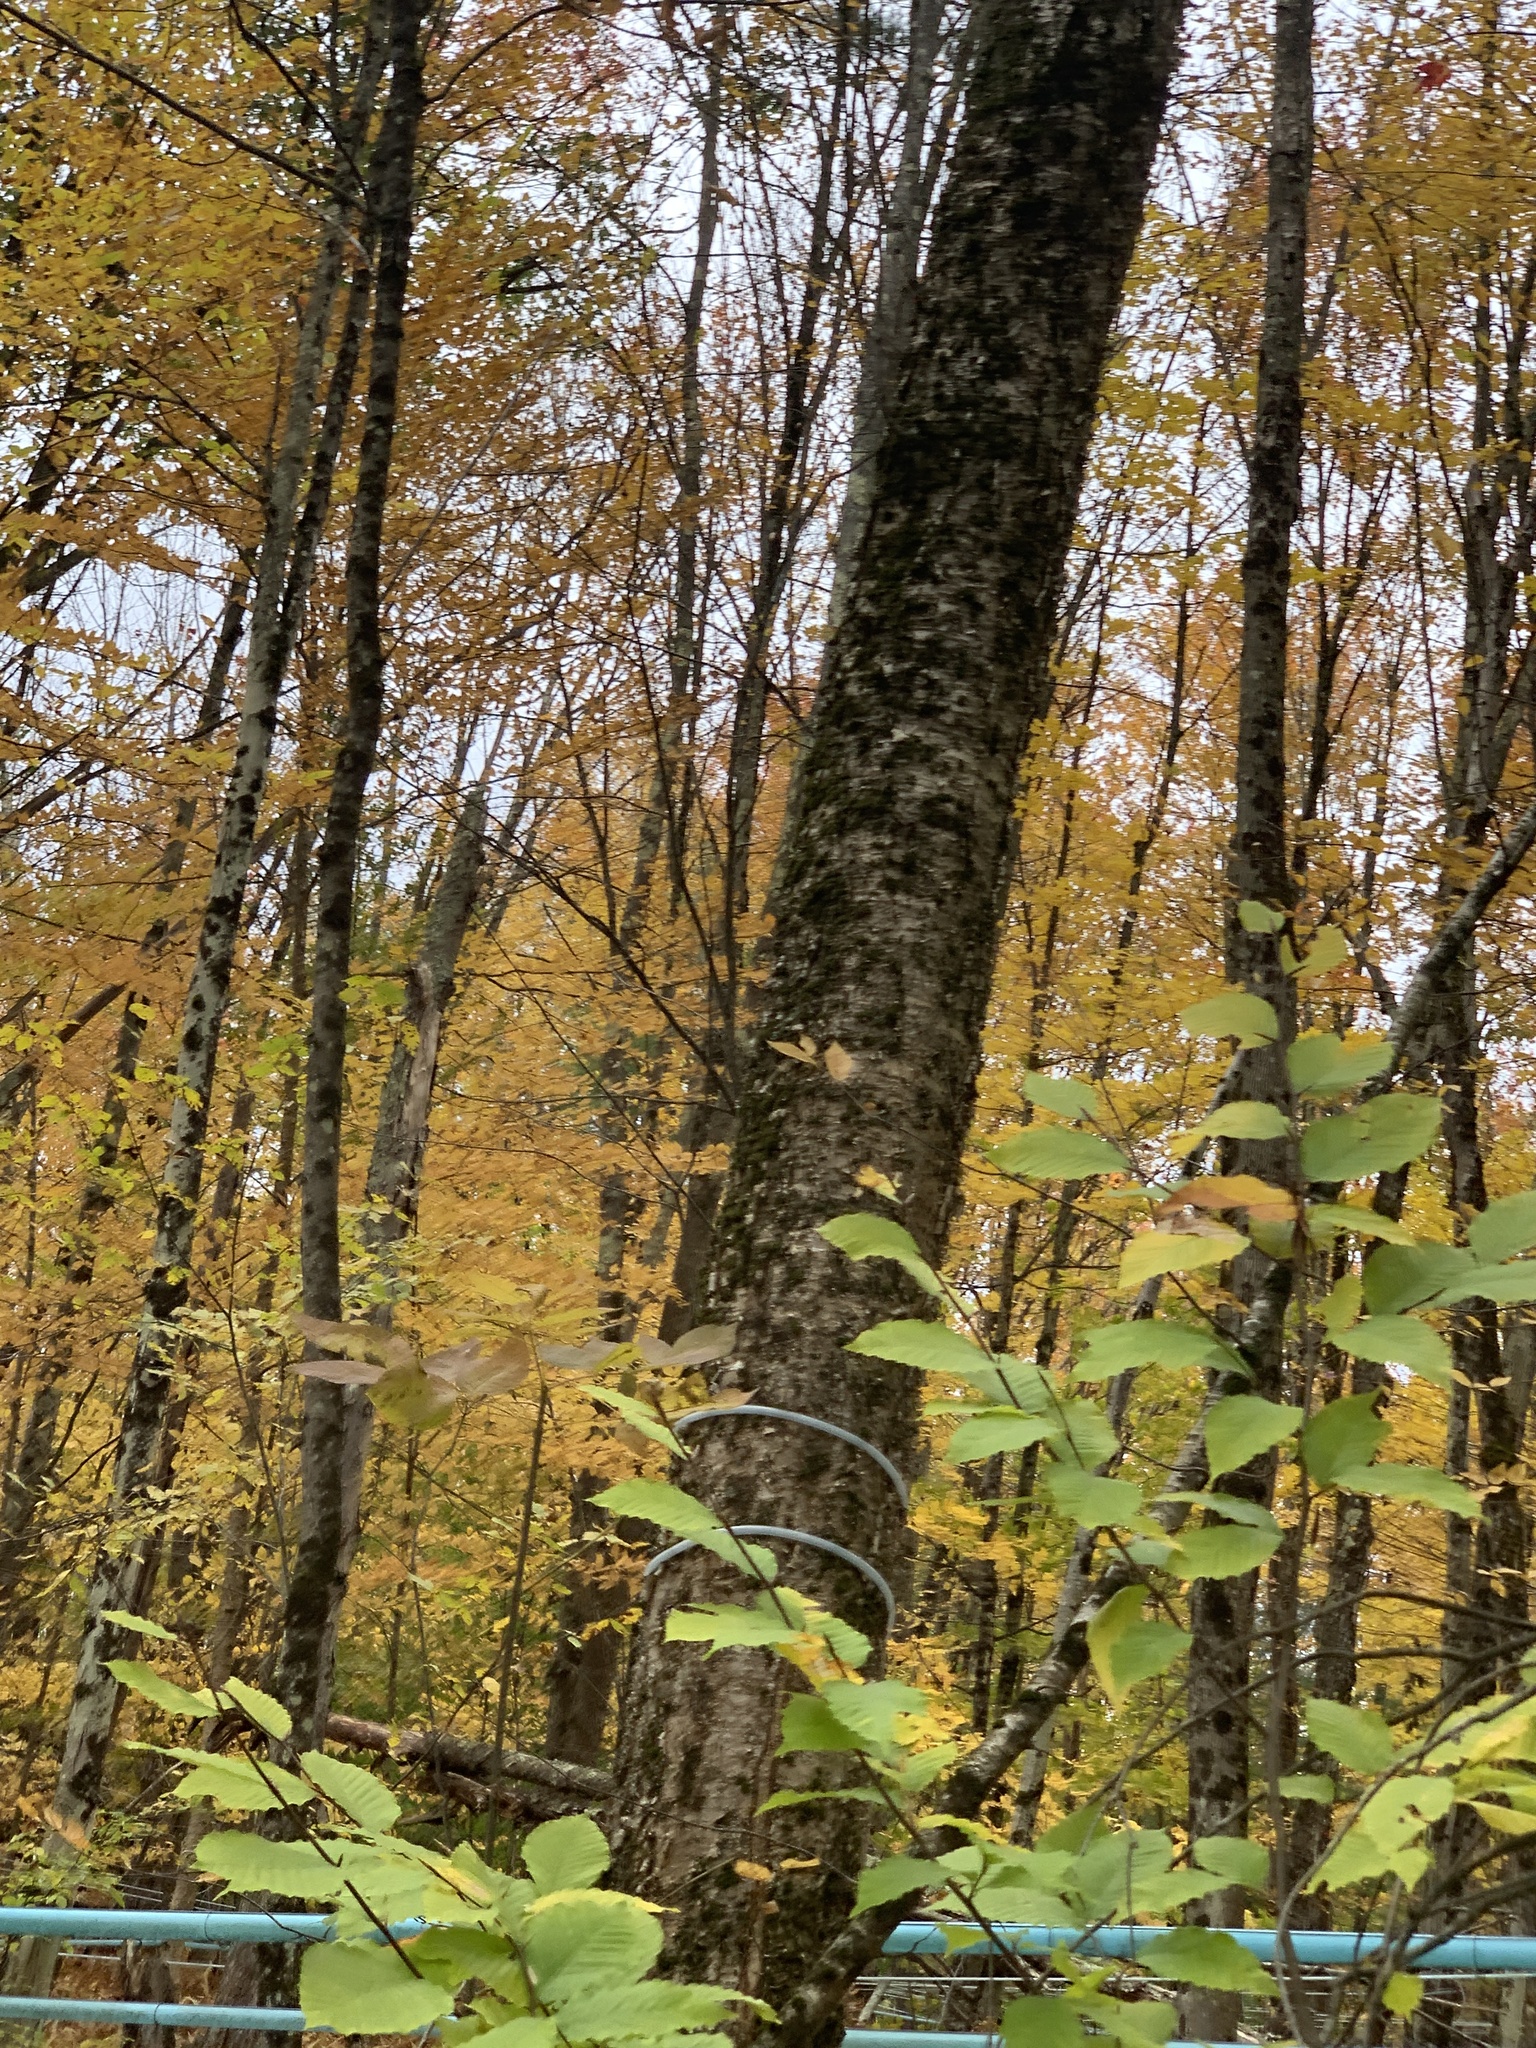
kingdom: Plantae
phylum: Tracheophyta
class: Magnoliopsida
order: Fagales
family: Betulaceae
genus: Betula
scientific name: Betula alleghaniensis
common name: Yellow birch
